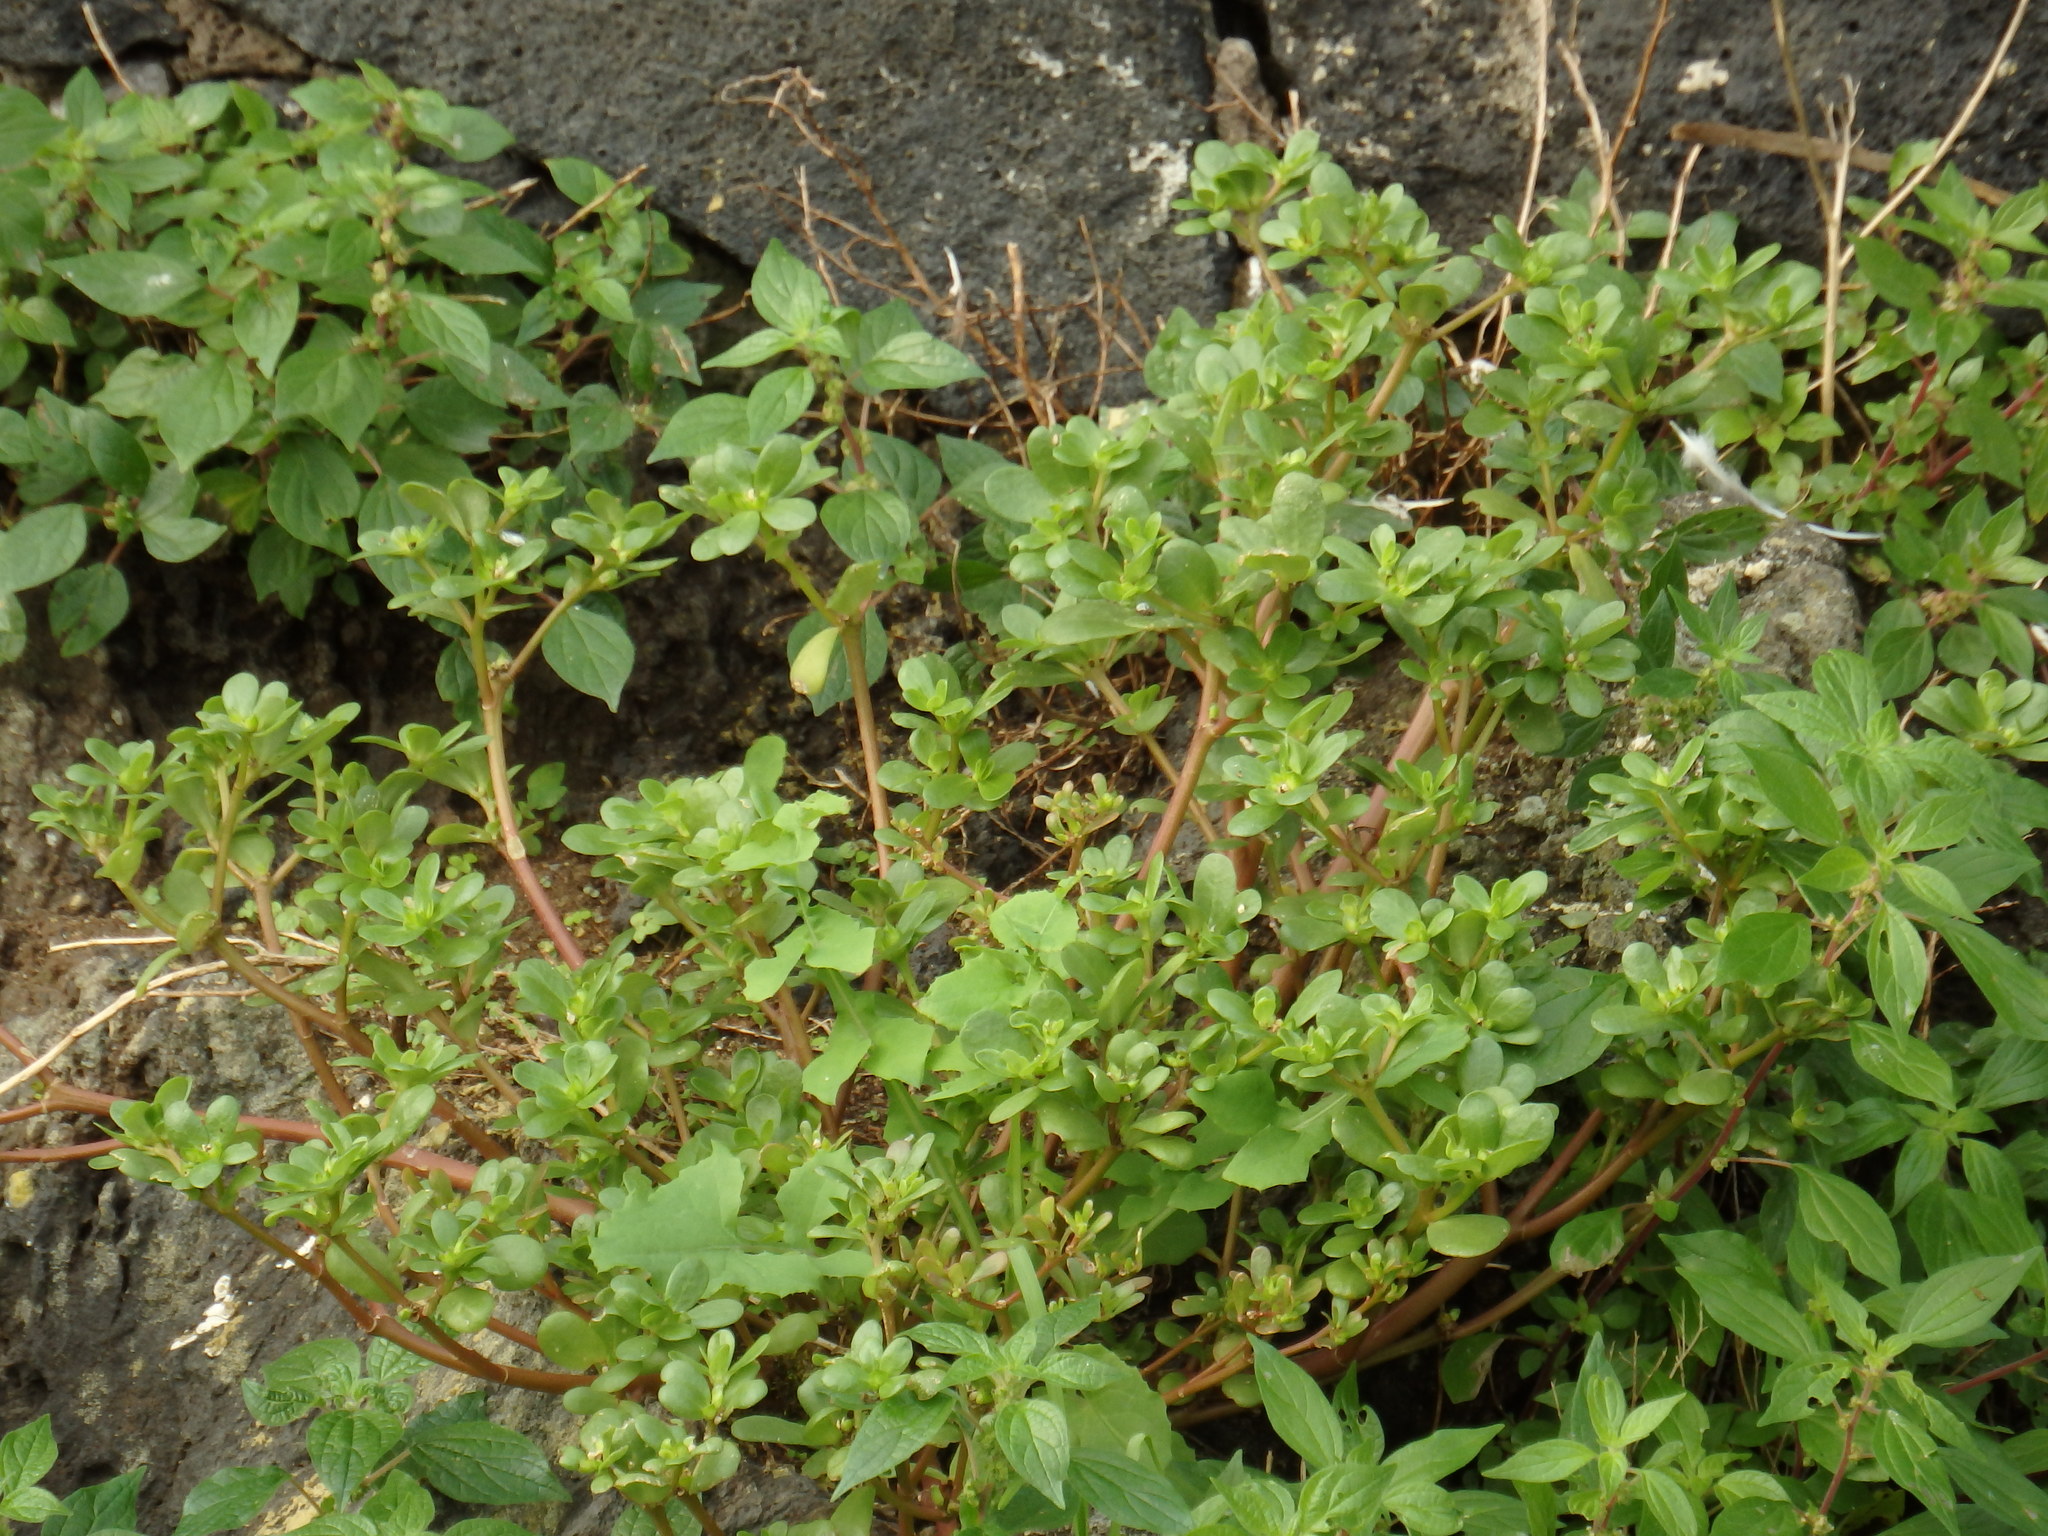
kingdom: Plantae
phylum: Tracheophyta
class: Magnoliopsida
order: Caryophyllales
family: Portulacaceae
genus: Portulaca
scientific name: Portulaca oleracea
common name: Common purslane
